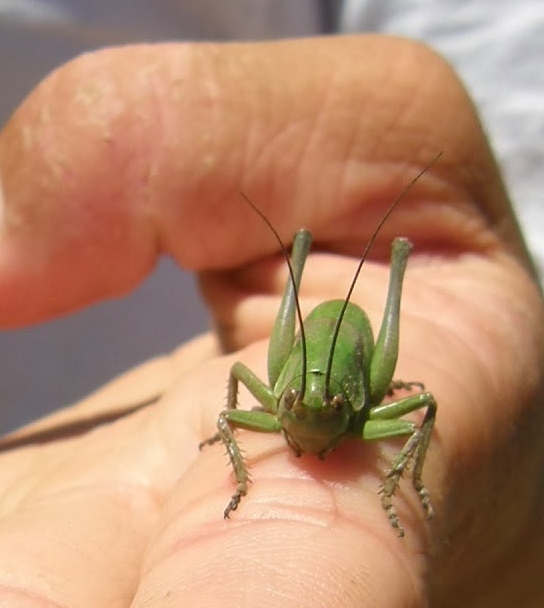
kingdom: Animalia
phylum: Arthropoda
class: Insecta
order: Orthoptera
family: Tettigoniidae
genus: Anabrus
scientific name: Anabrus simplex
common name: Mormon cricket
